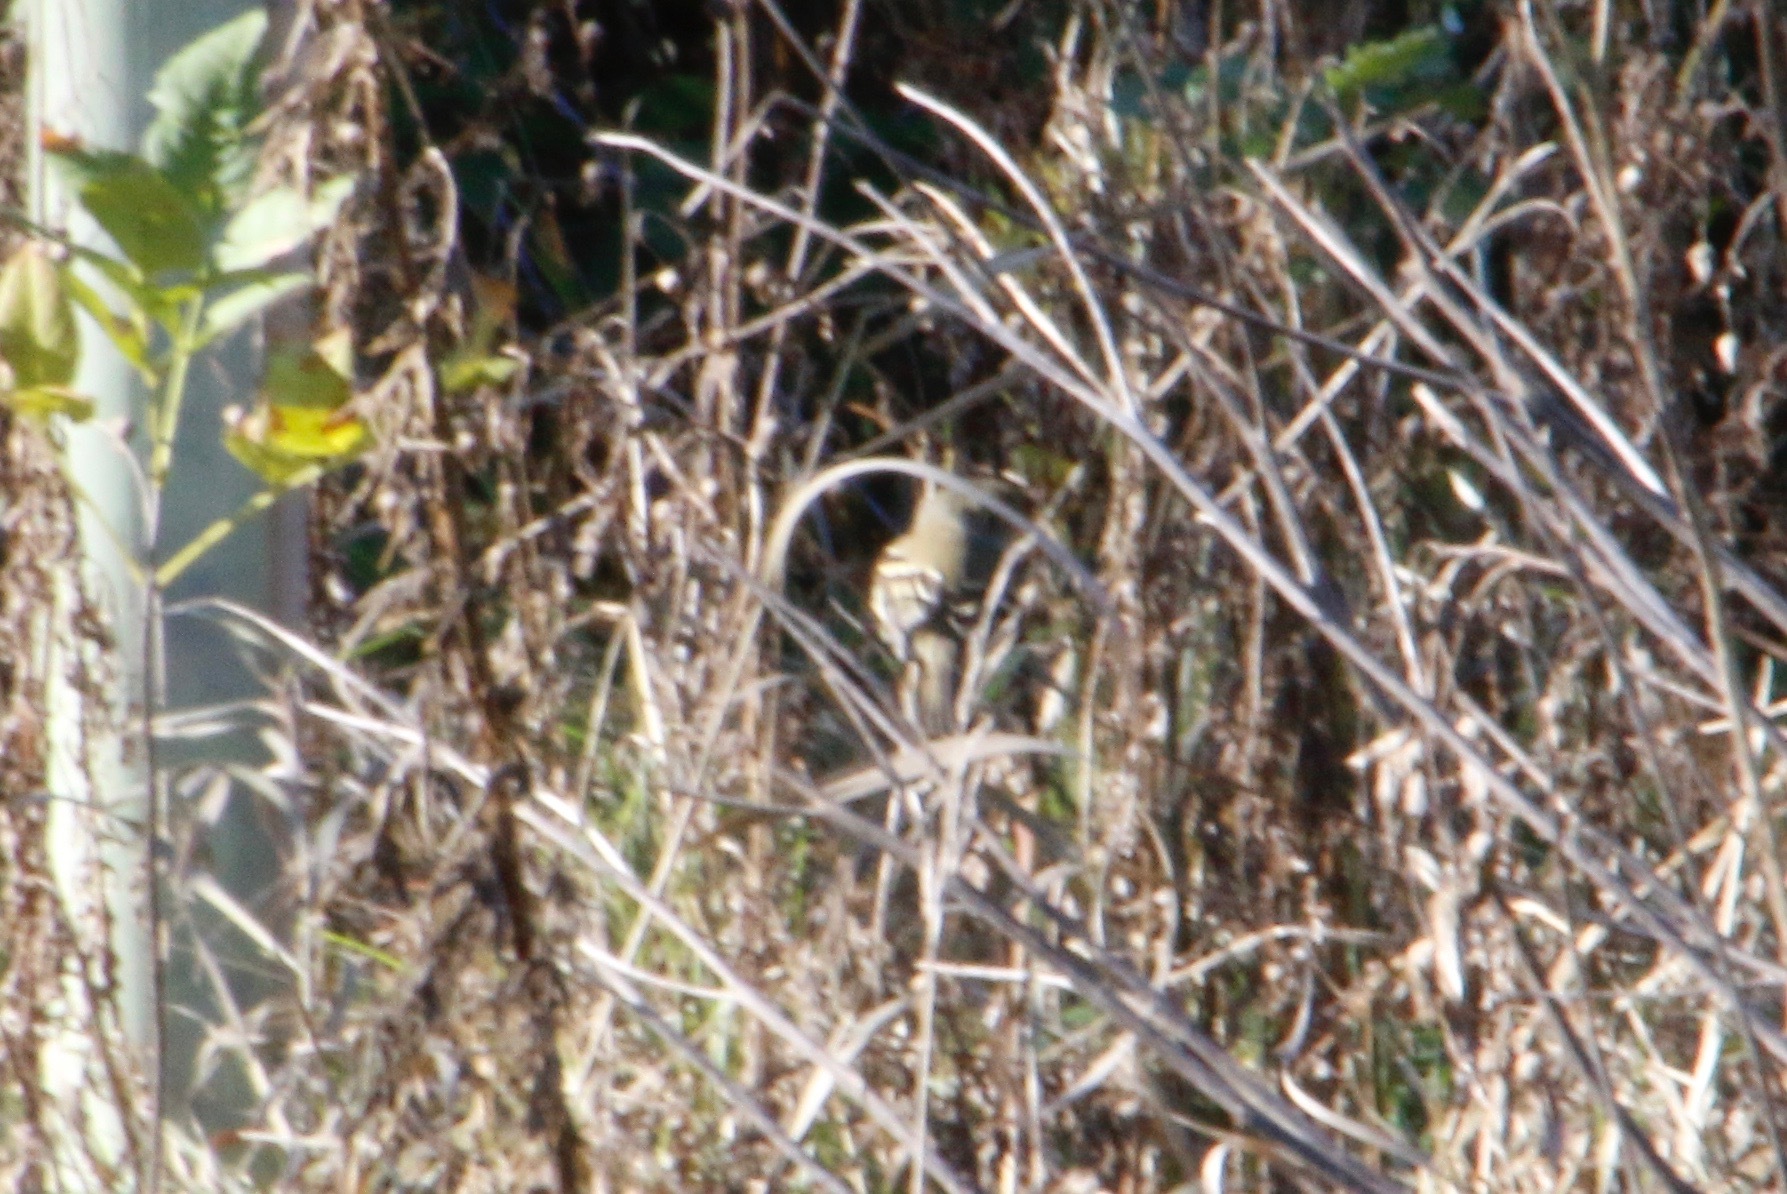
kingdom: Animalia
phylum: Chordata
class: Aves
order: Passeriformes
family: Tyrannidae
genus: Empidonax
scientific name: Empidonax
